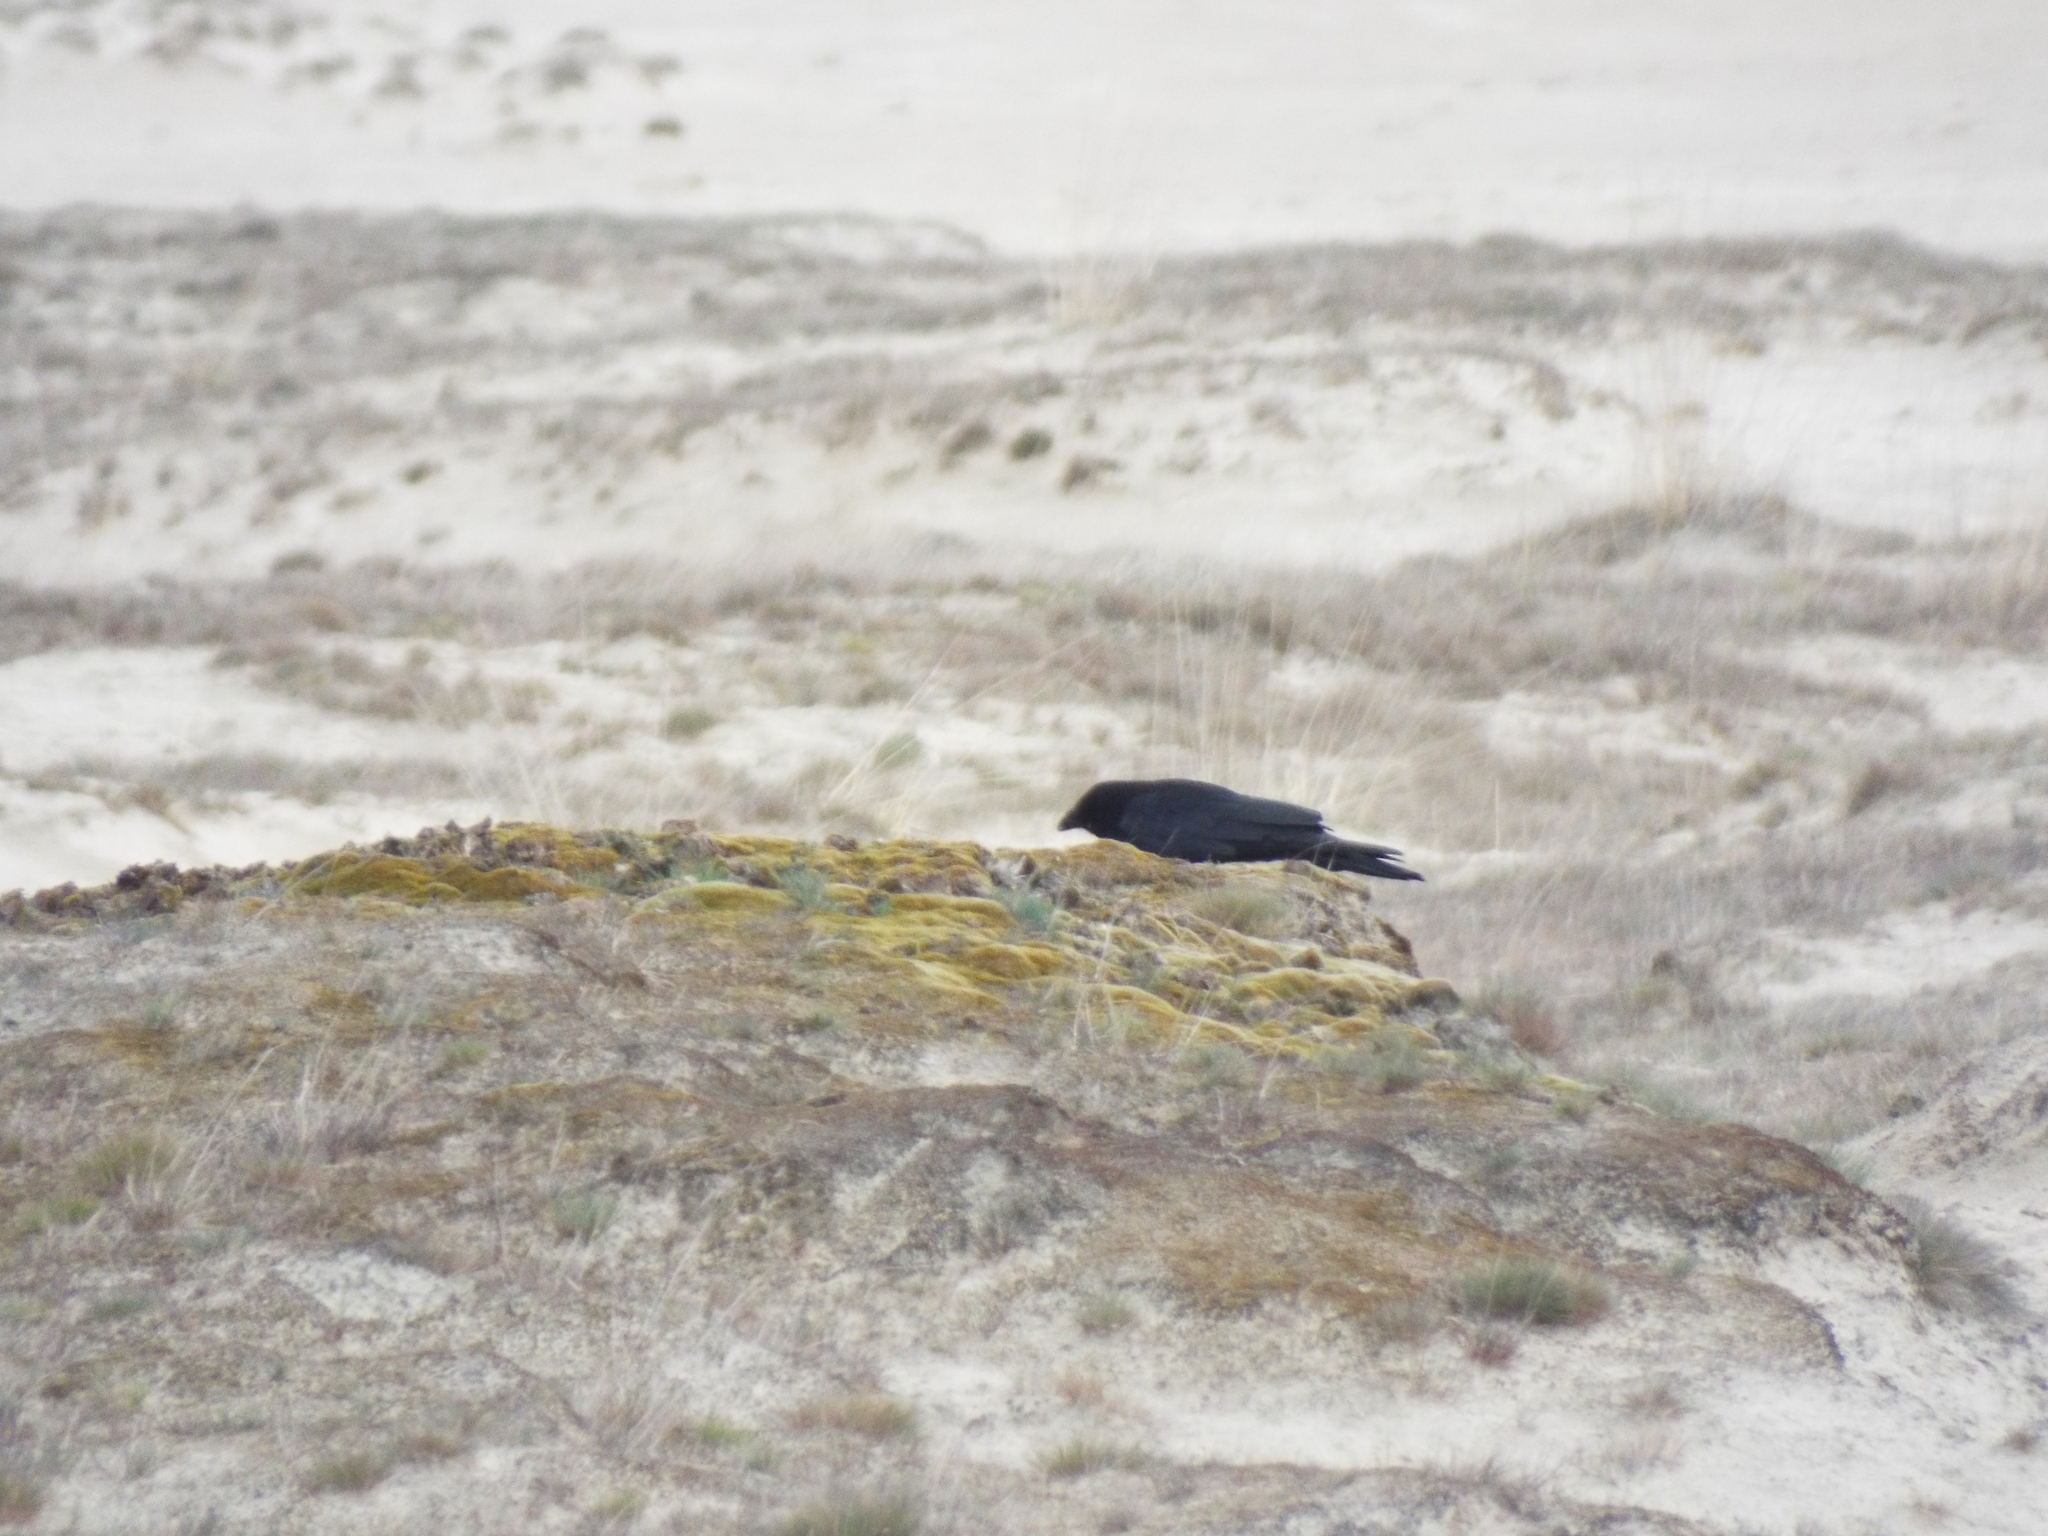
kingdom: Animalia
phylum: Chordata
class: Aves
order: Passeriformes
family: Corvidae
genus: Corvus
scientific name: Corvus corone
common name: Carrion crow
